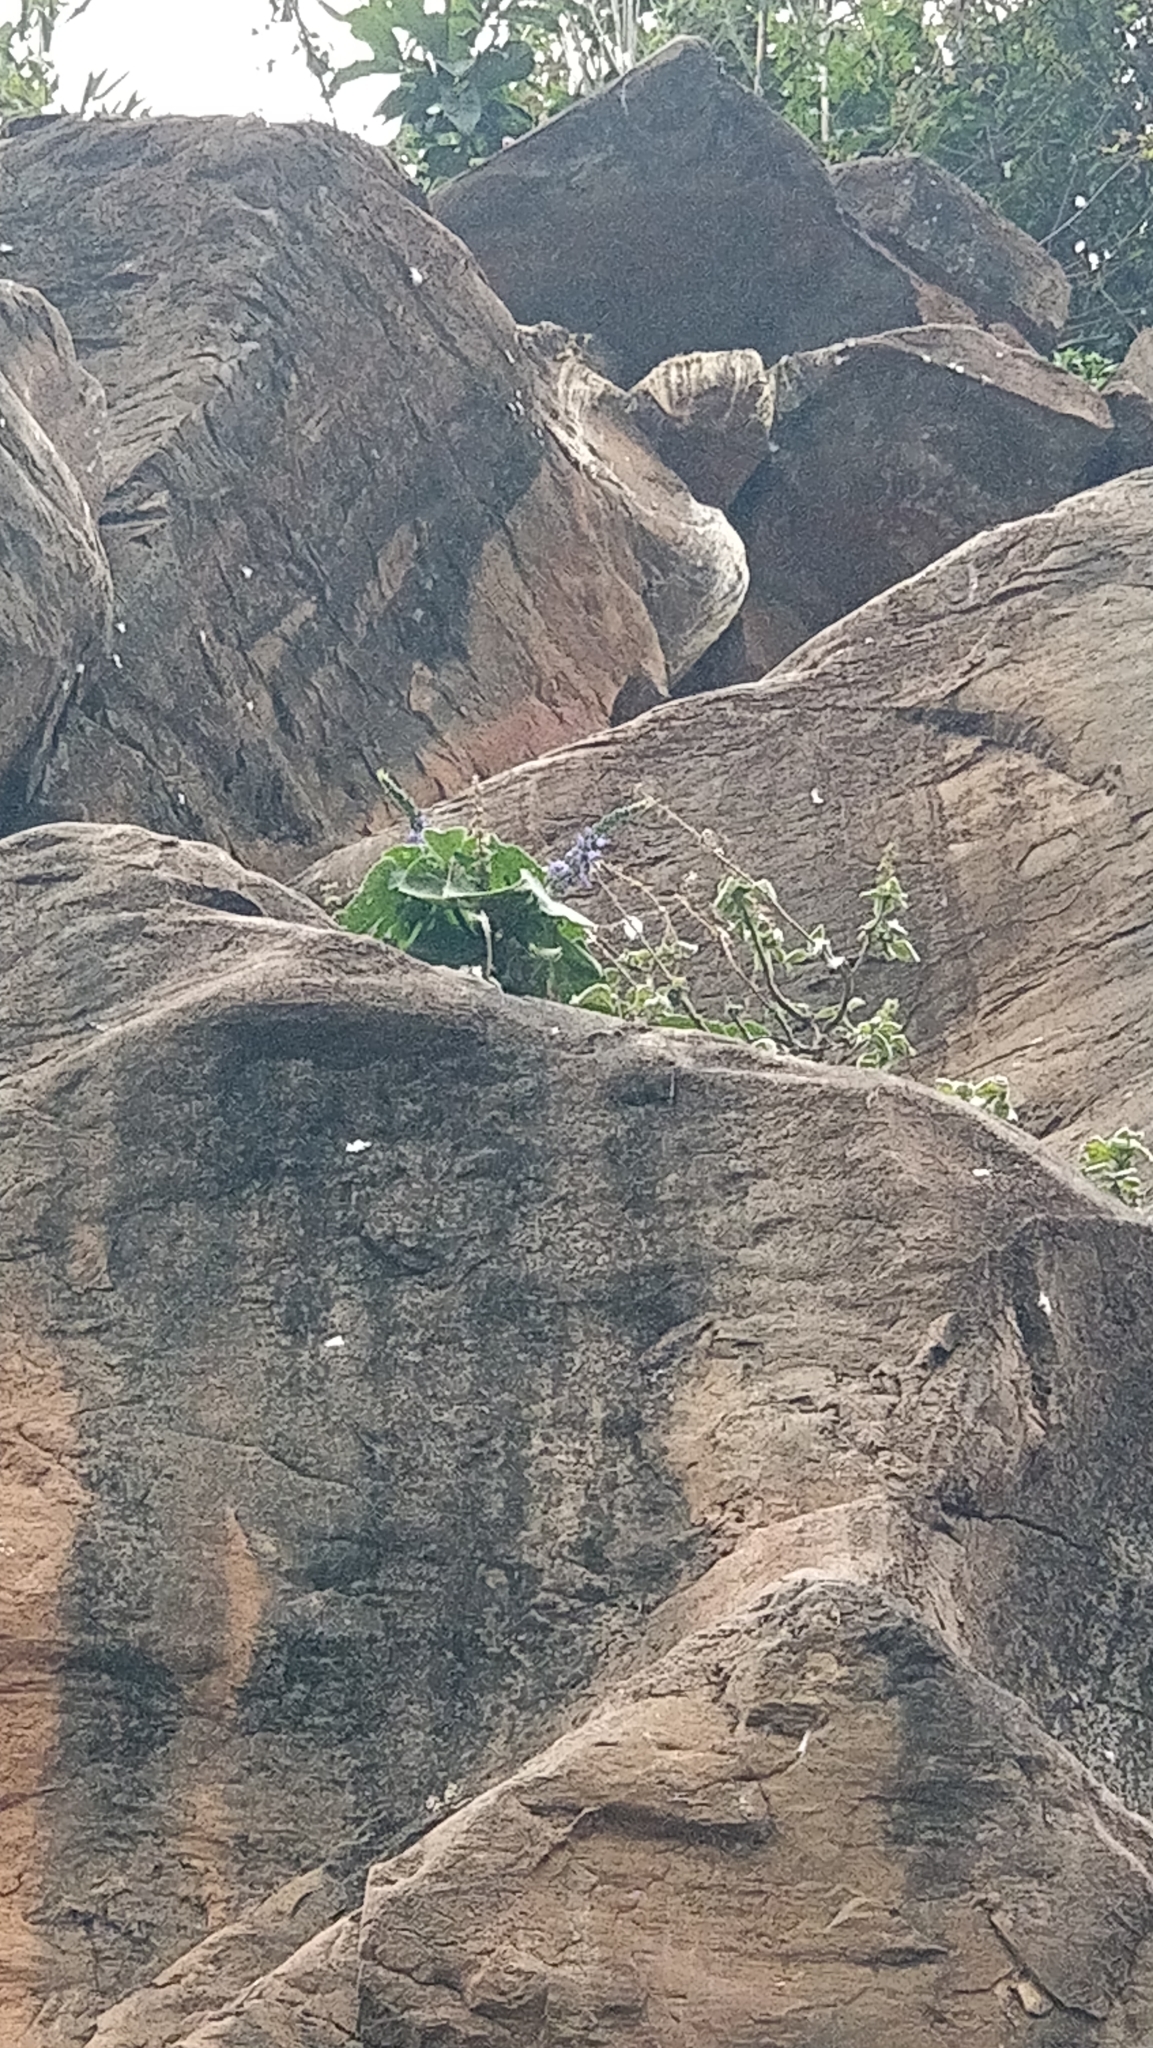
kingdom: Plantae
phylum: Tracheophyta
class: Magnoliopsida
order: Lamiales
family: Lamiaceae
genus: Coleus
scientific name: Coleus barbatus
